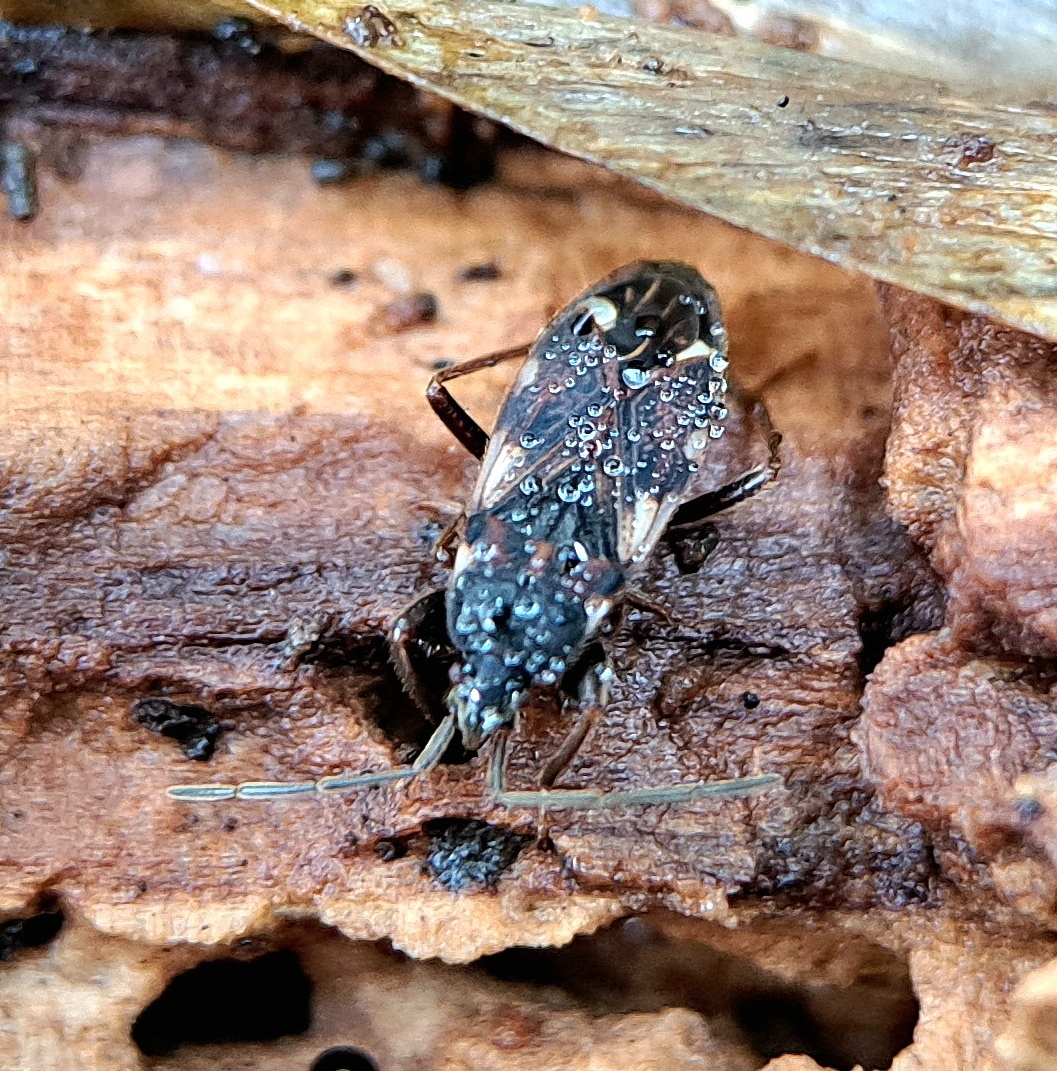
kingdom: Animalia
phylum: Arthropoda
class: Insecta
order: Hemiptera
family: Rhyparochromidae
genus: Eremocoris
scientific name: Eremocoris podagricus
